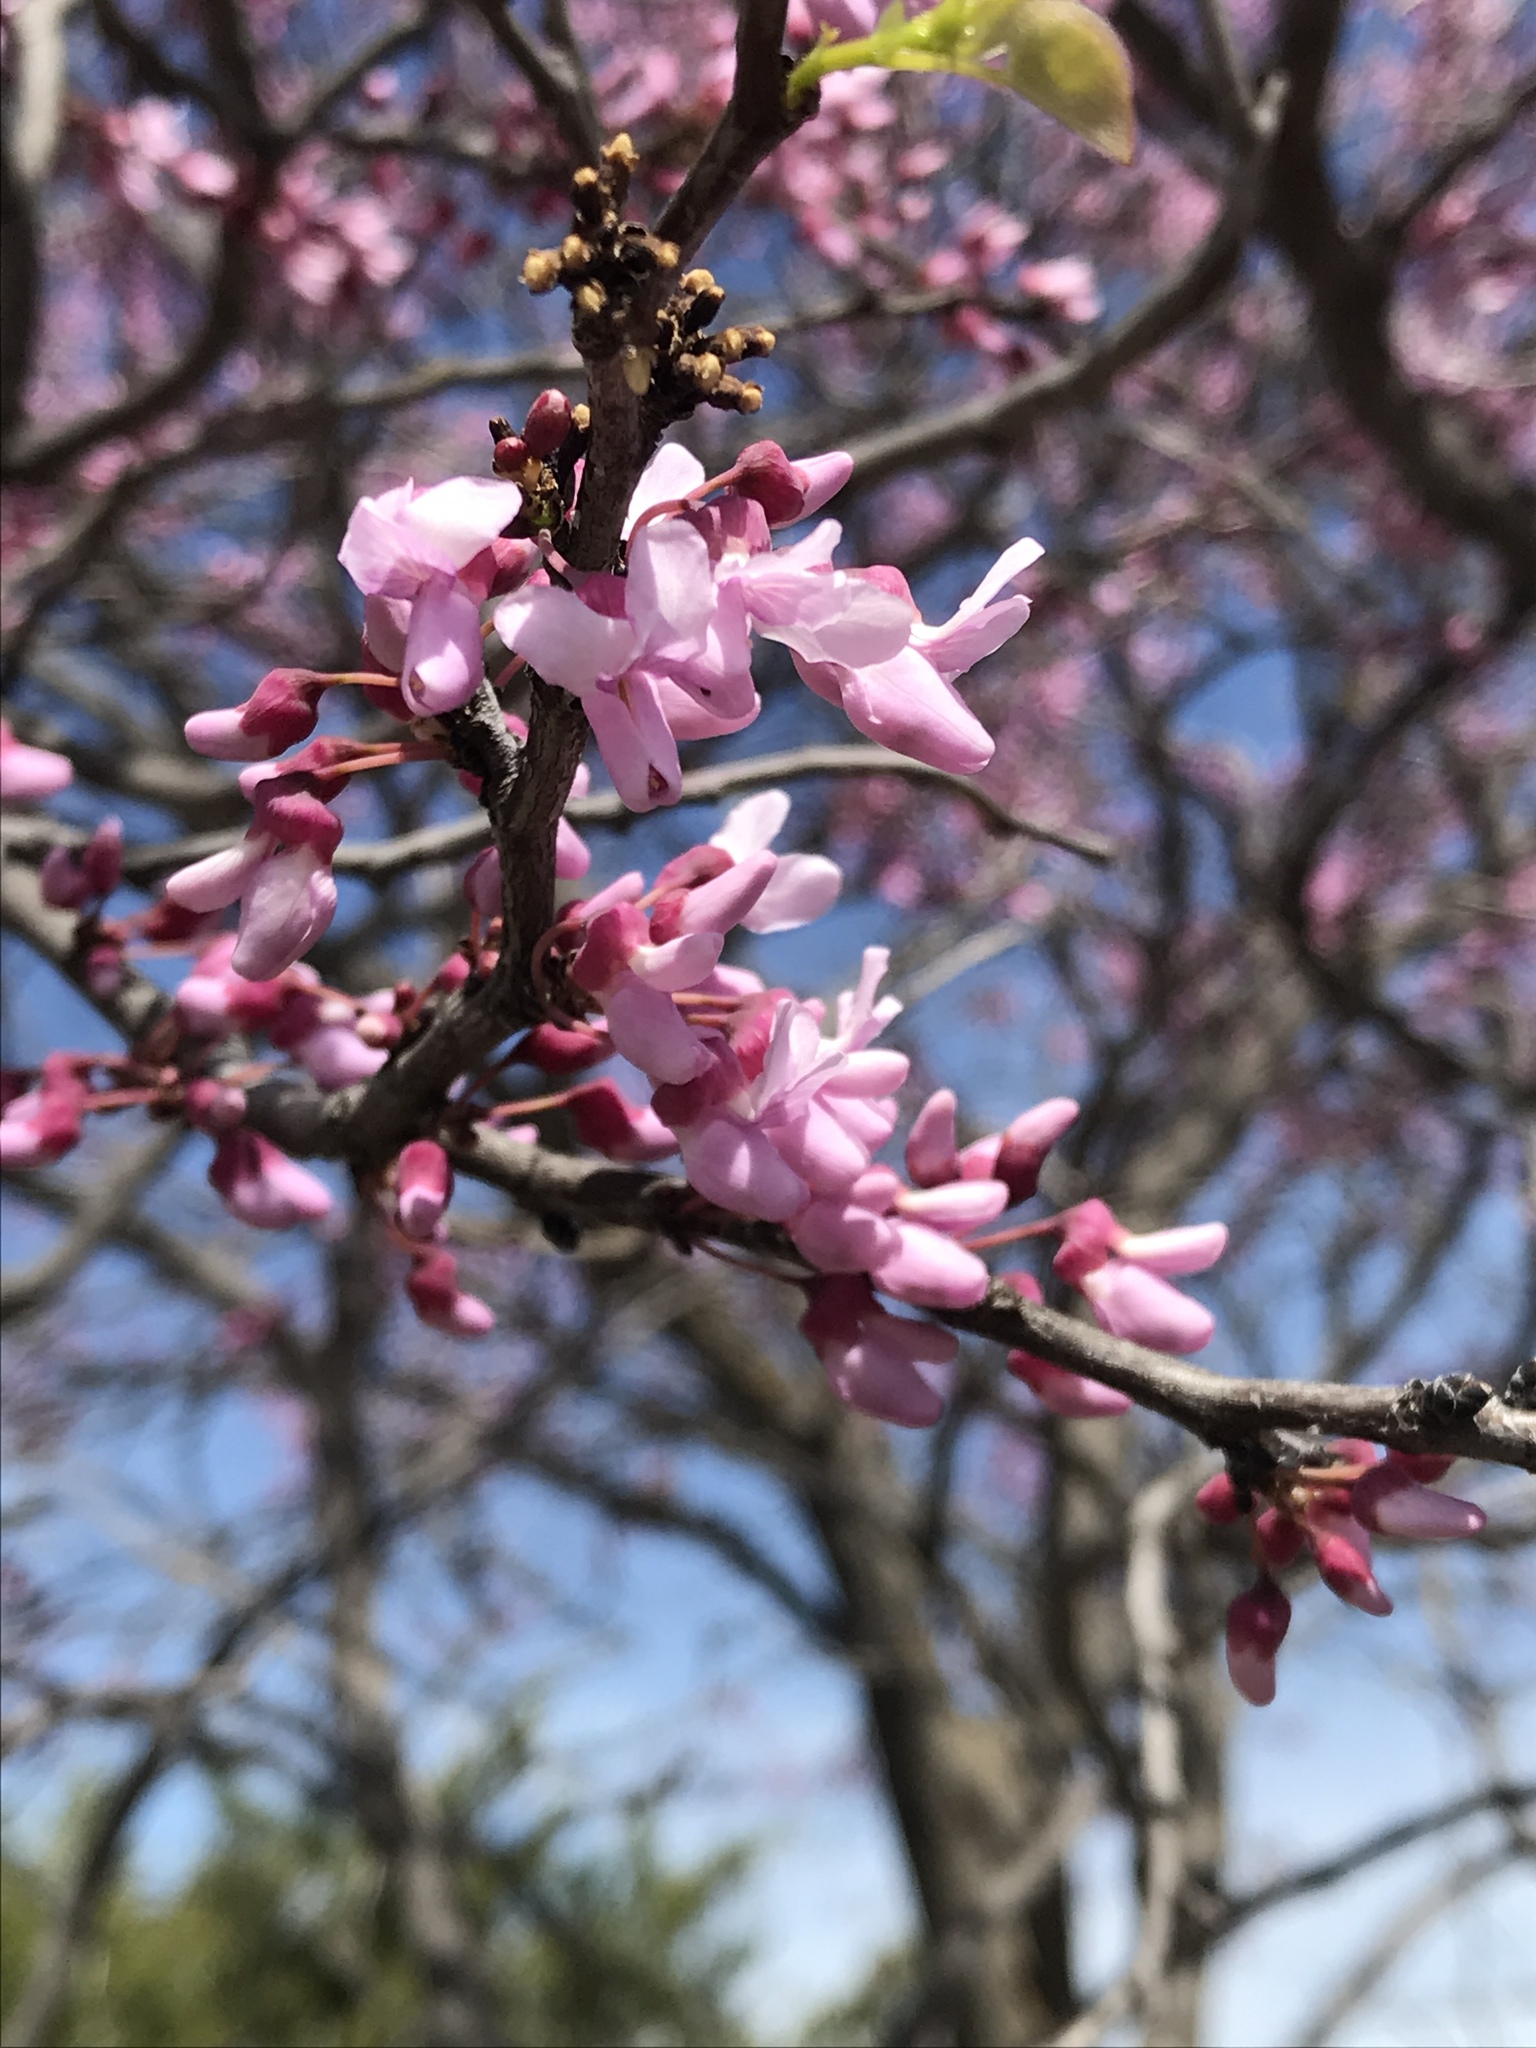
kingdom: Plantae
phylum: Tracheophyta
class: Magnoliopsida
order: Fabales
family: Fabaceae
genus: Cercis
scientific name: Cercis canadensis
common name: Eastern redbud
